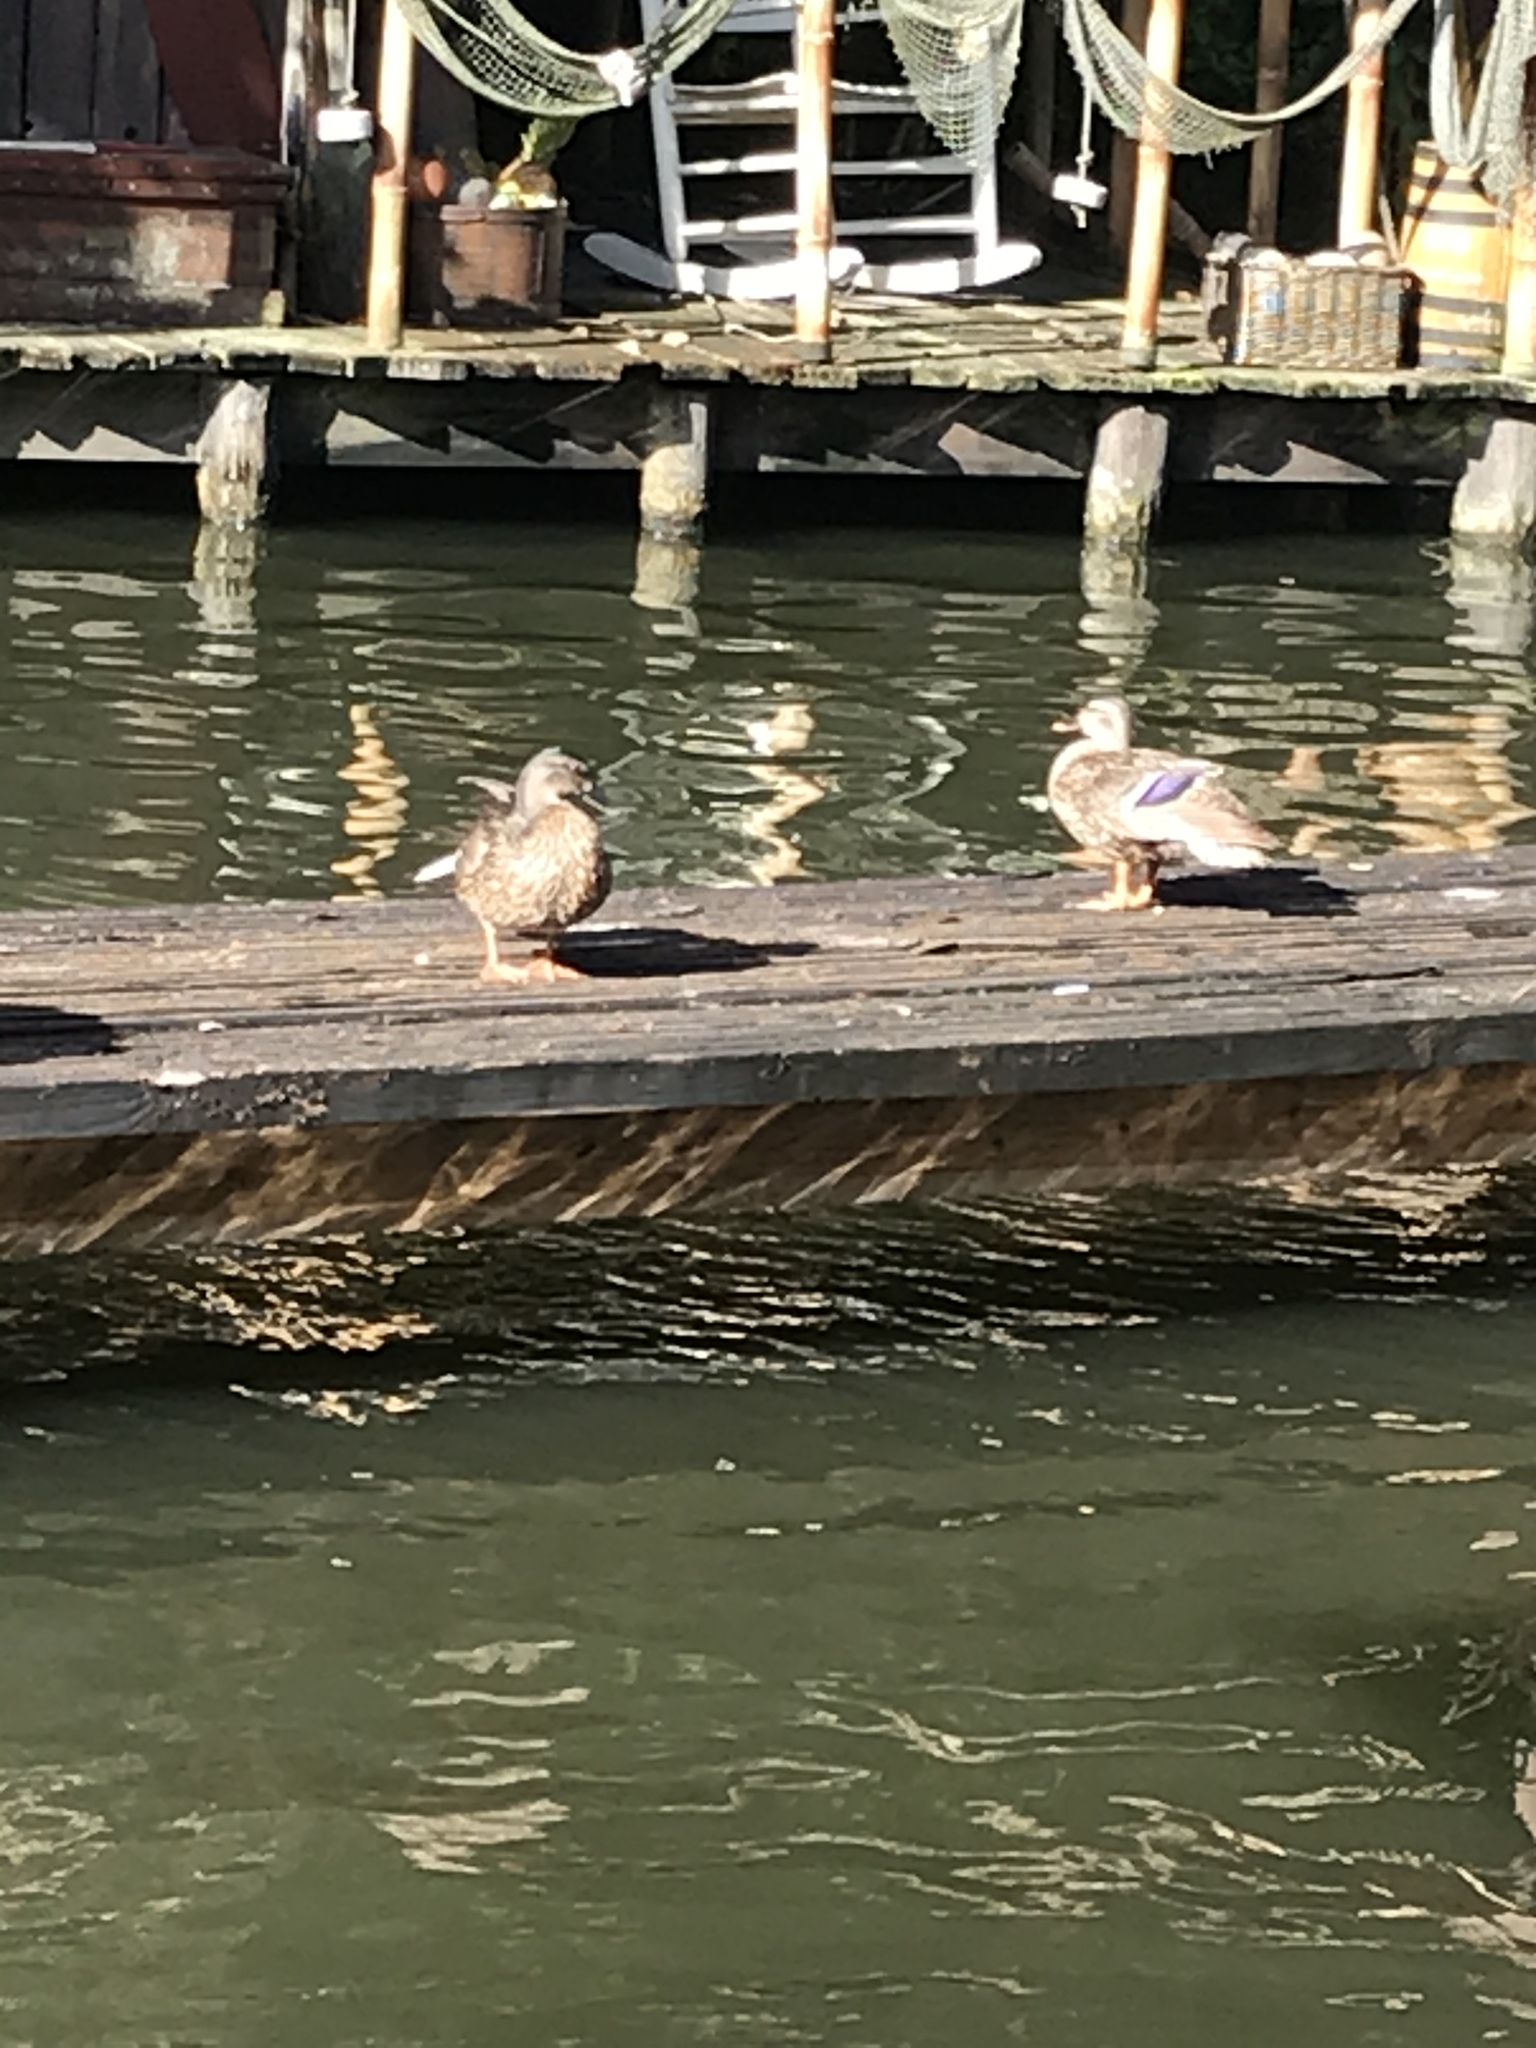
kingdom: Animalia
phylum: Chordata
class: Aves
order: Anseriformes
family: Anatidae
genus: Anas
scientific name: Anas platyrhynchos
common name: Mallard
